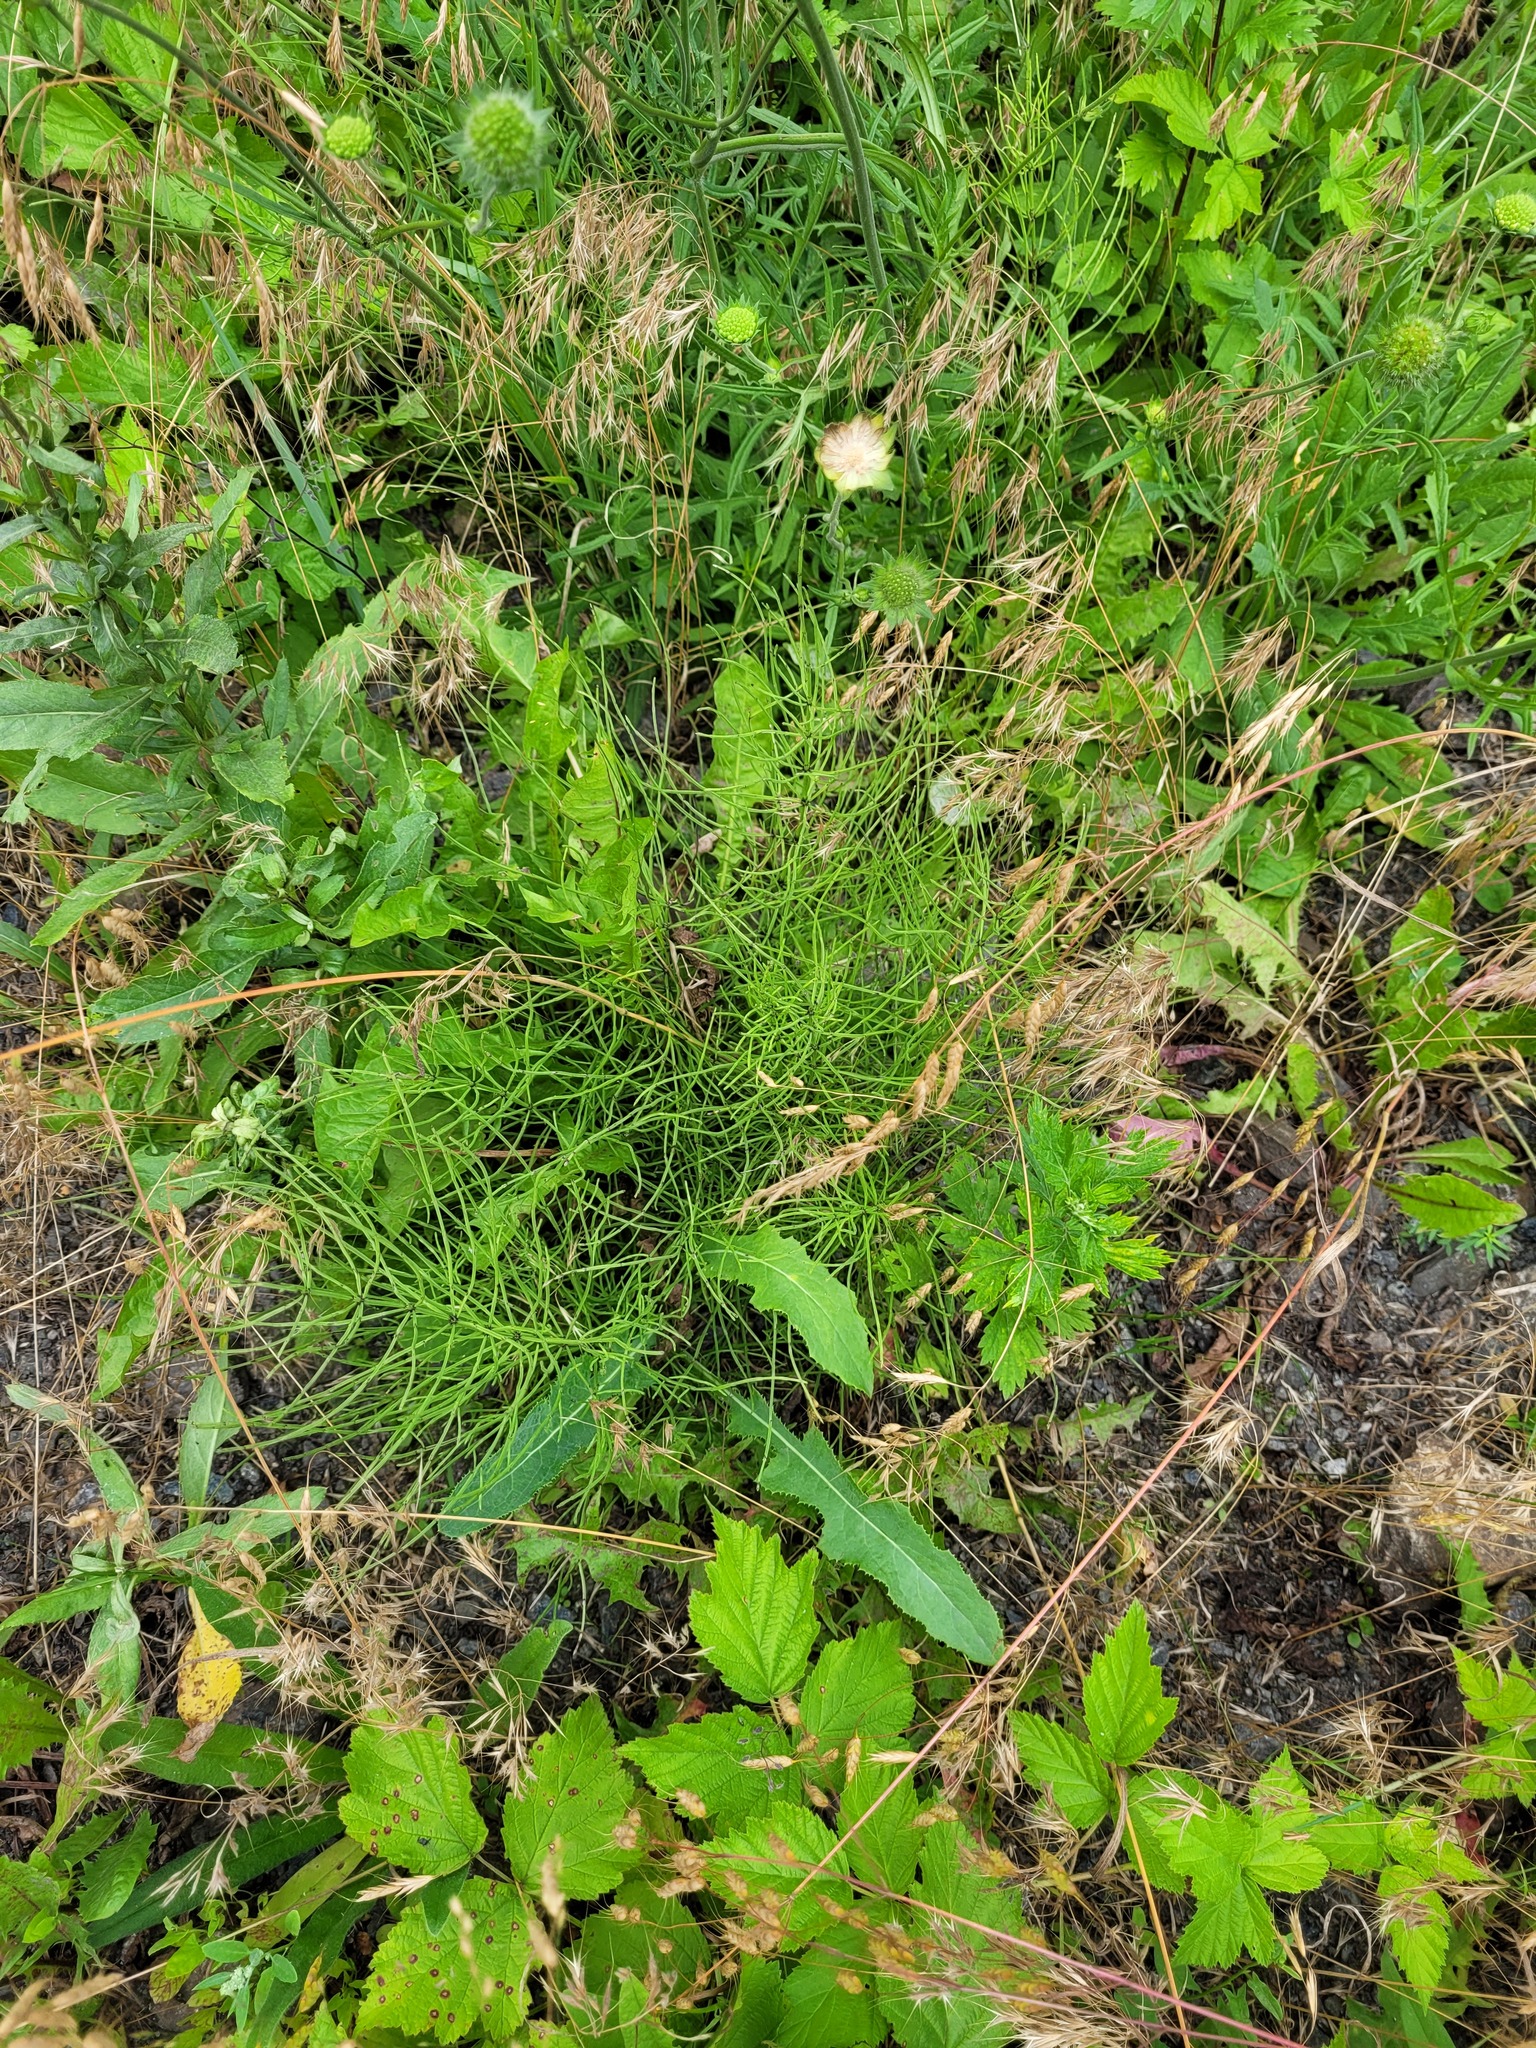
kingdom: Plantae
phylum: Tracheophyta
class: Polypodiopsida
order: Equisetales
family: Equisetaceae
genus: Equisetum
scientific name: Equisetum arvense
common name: Field horsetail
